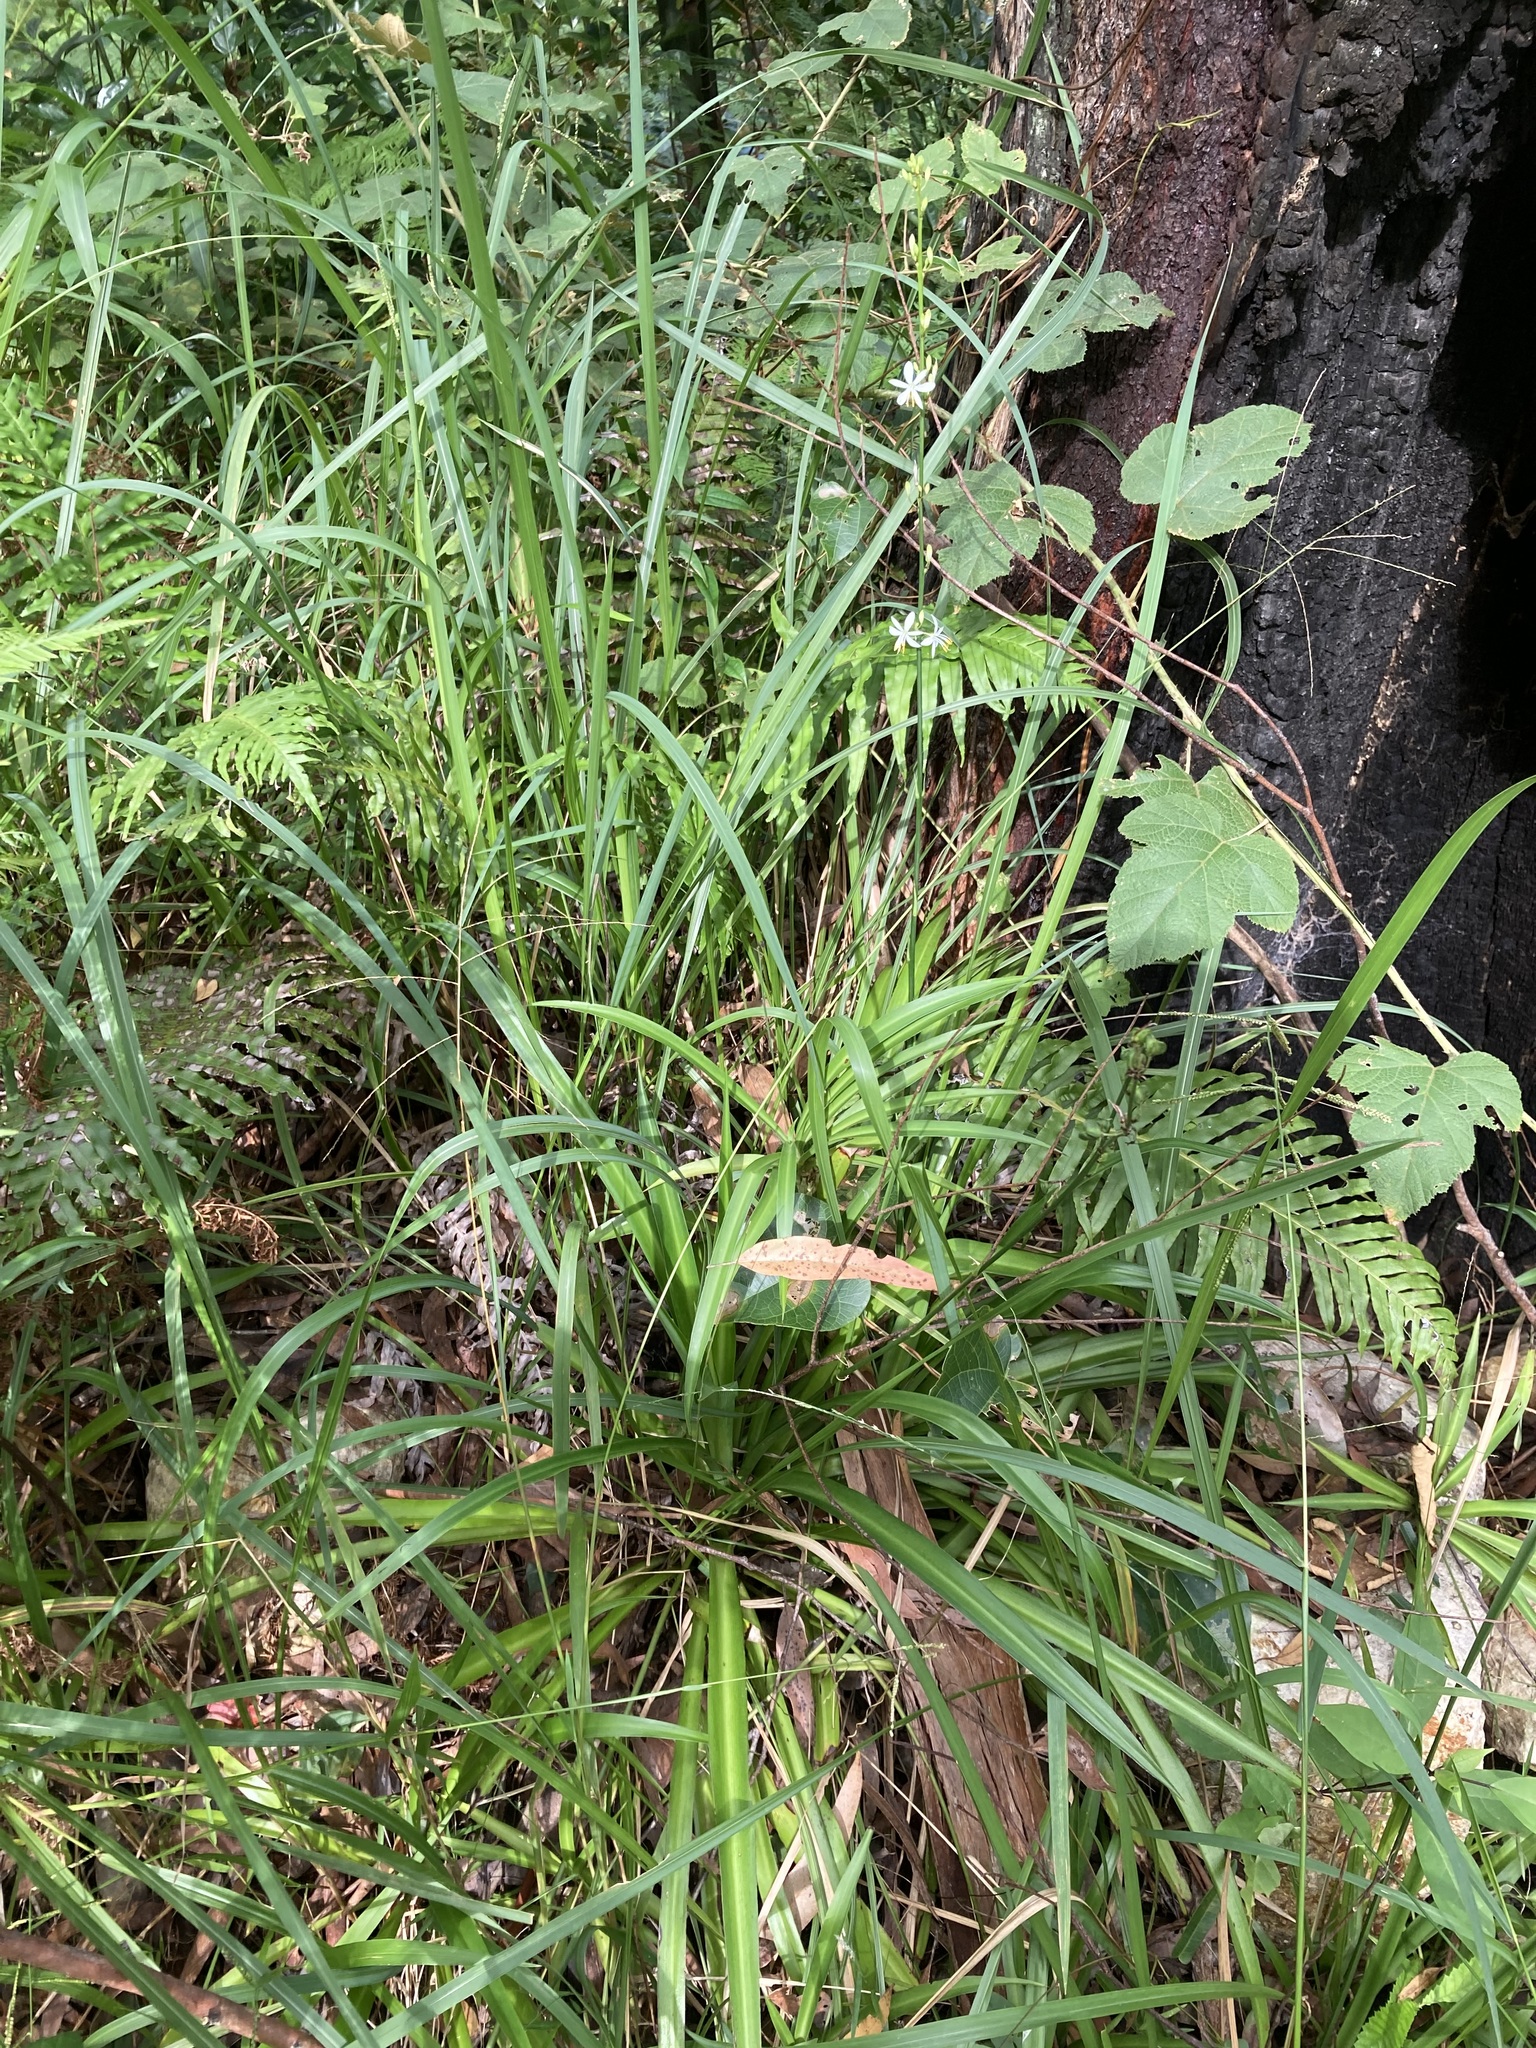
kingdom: Plantae
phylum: Tracheophyta
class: Liliopsida
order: Asparagales
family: Asparagaceae
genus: Chlorophytum
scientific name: Chlorophytum comosum
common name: Spider plant
